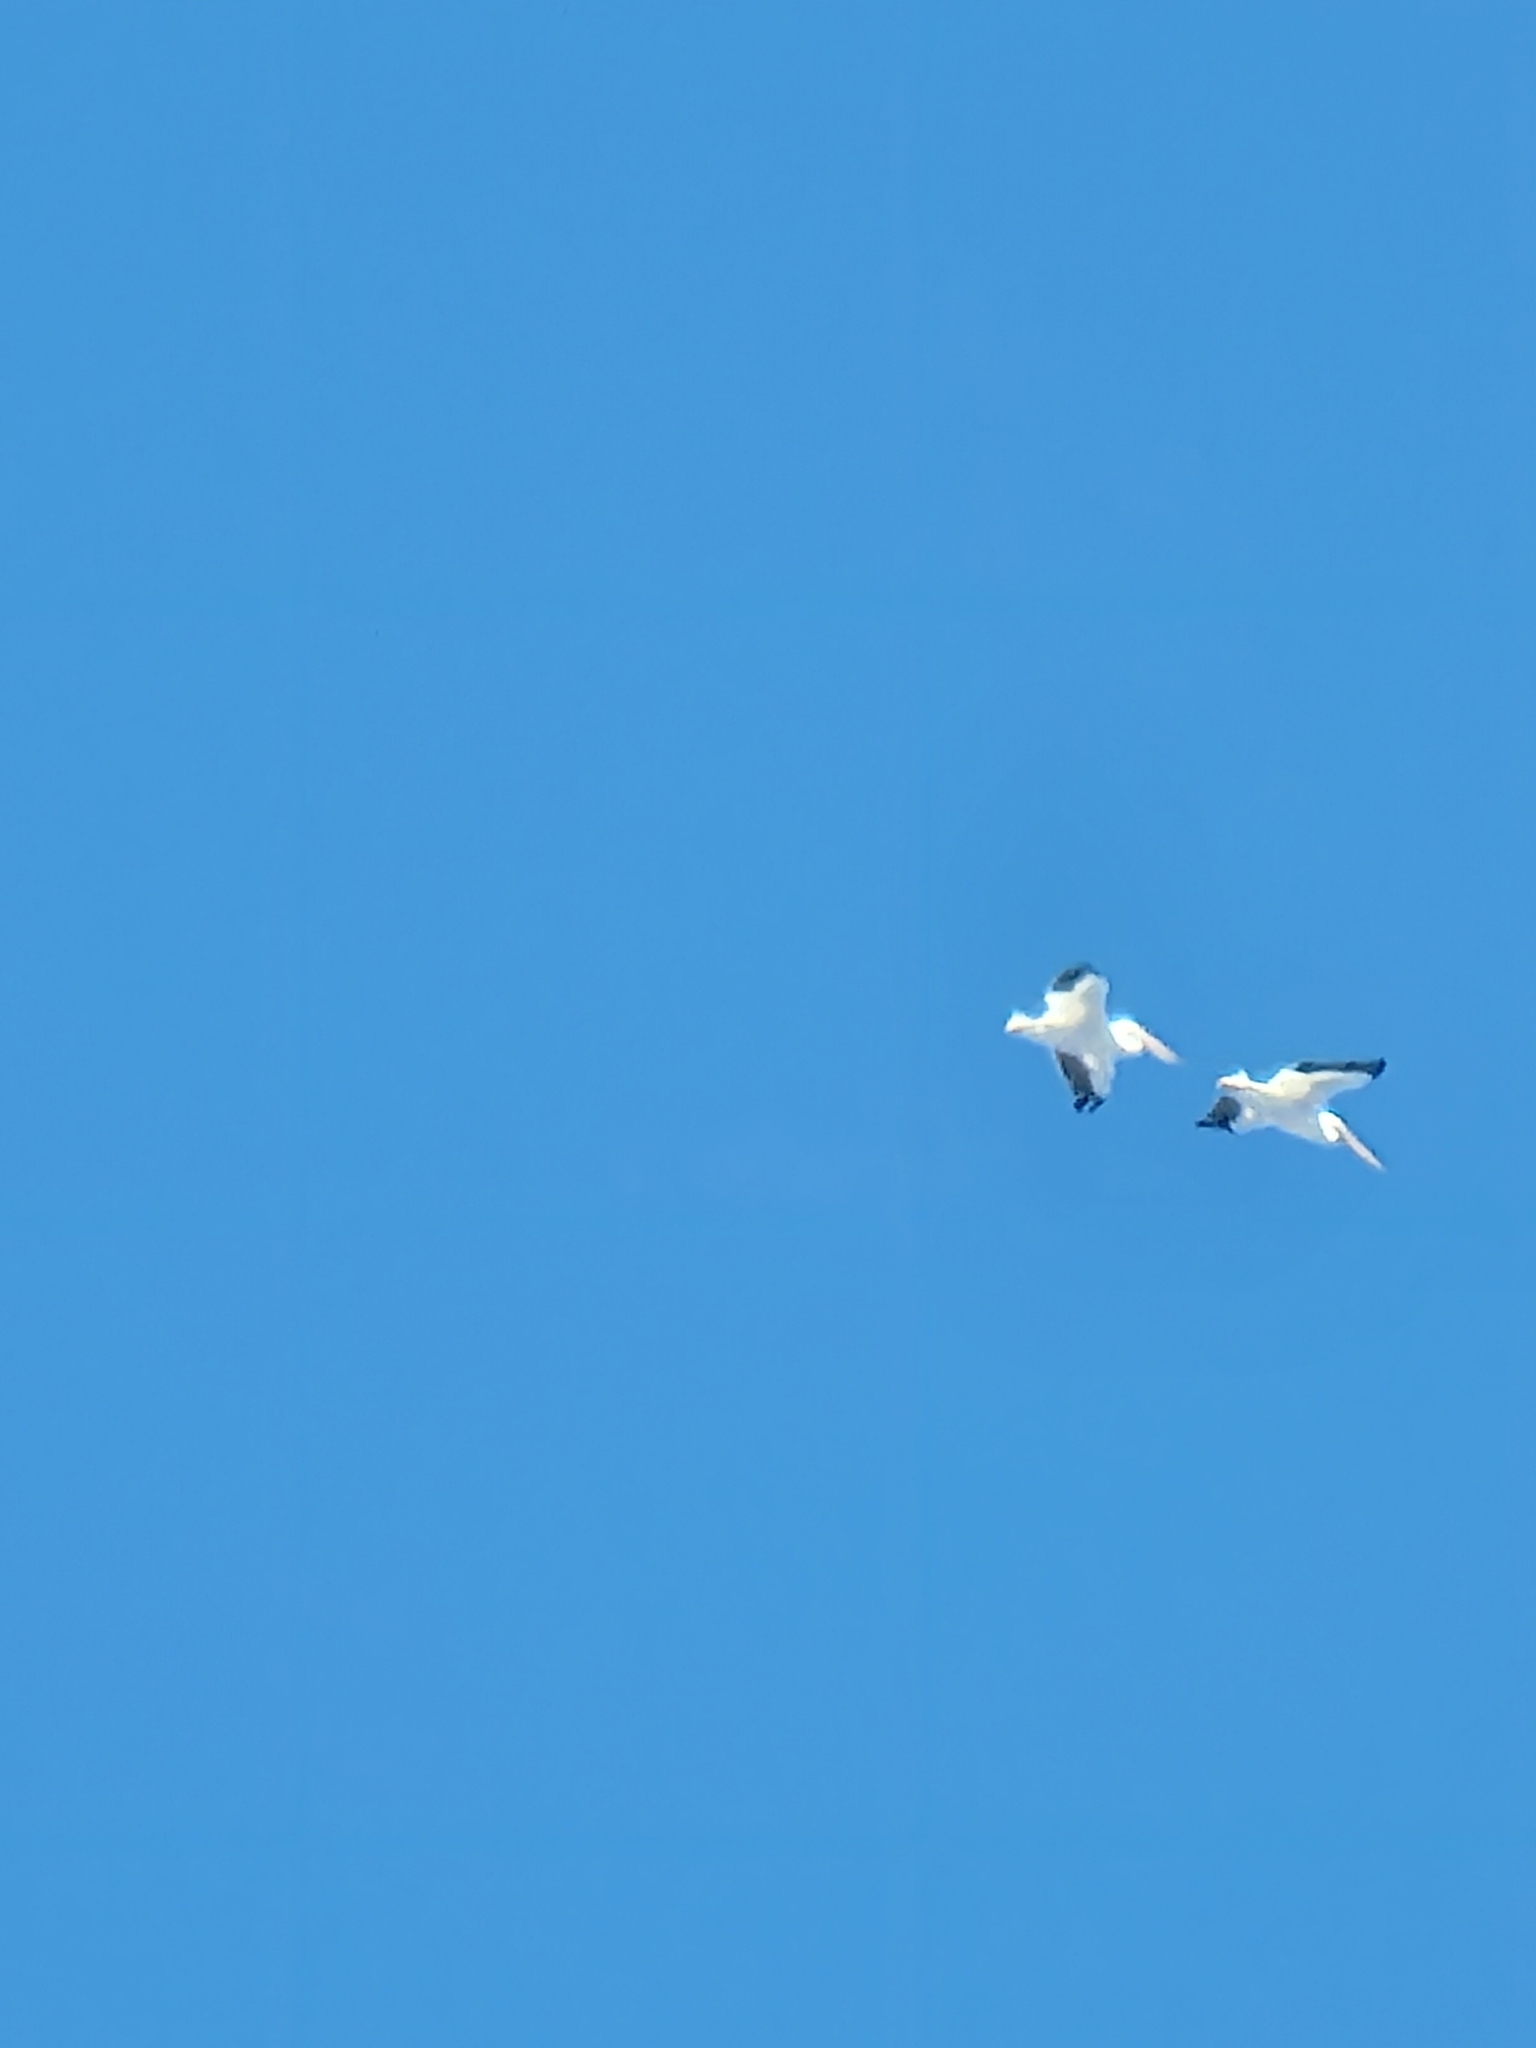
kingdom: Animalia
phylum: Chordata
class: Aves
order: Pelecaniformes
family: Pelecanidae
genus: Pelecanus
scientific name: Pelecanus erythrorhynchos
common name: American white pelican
